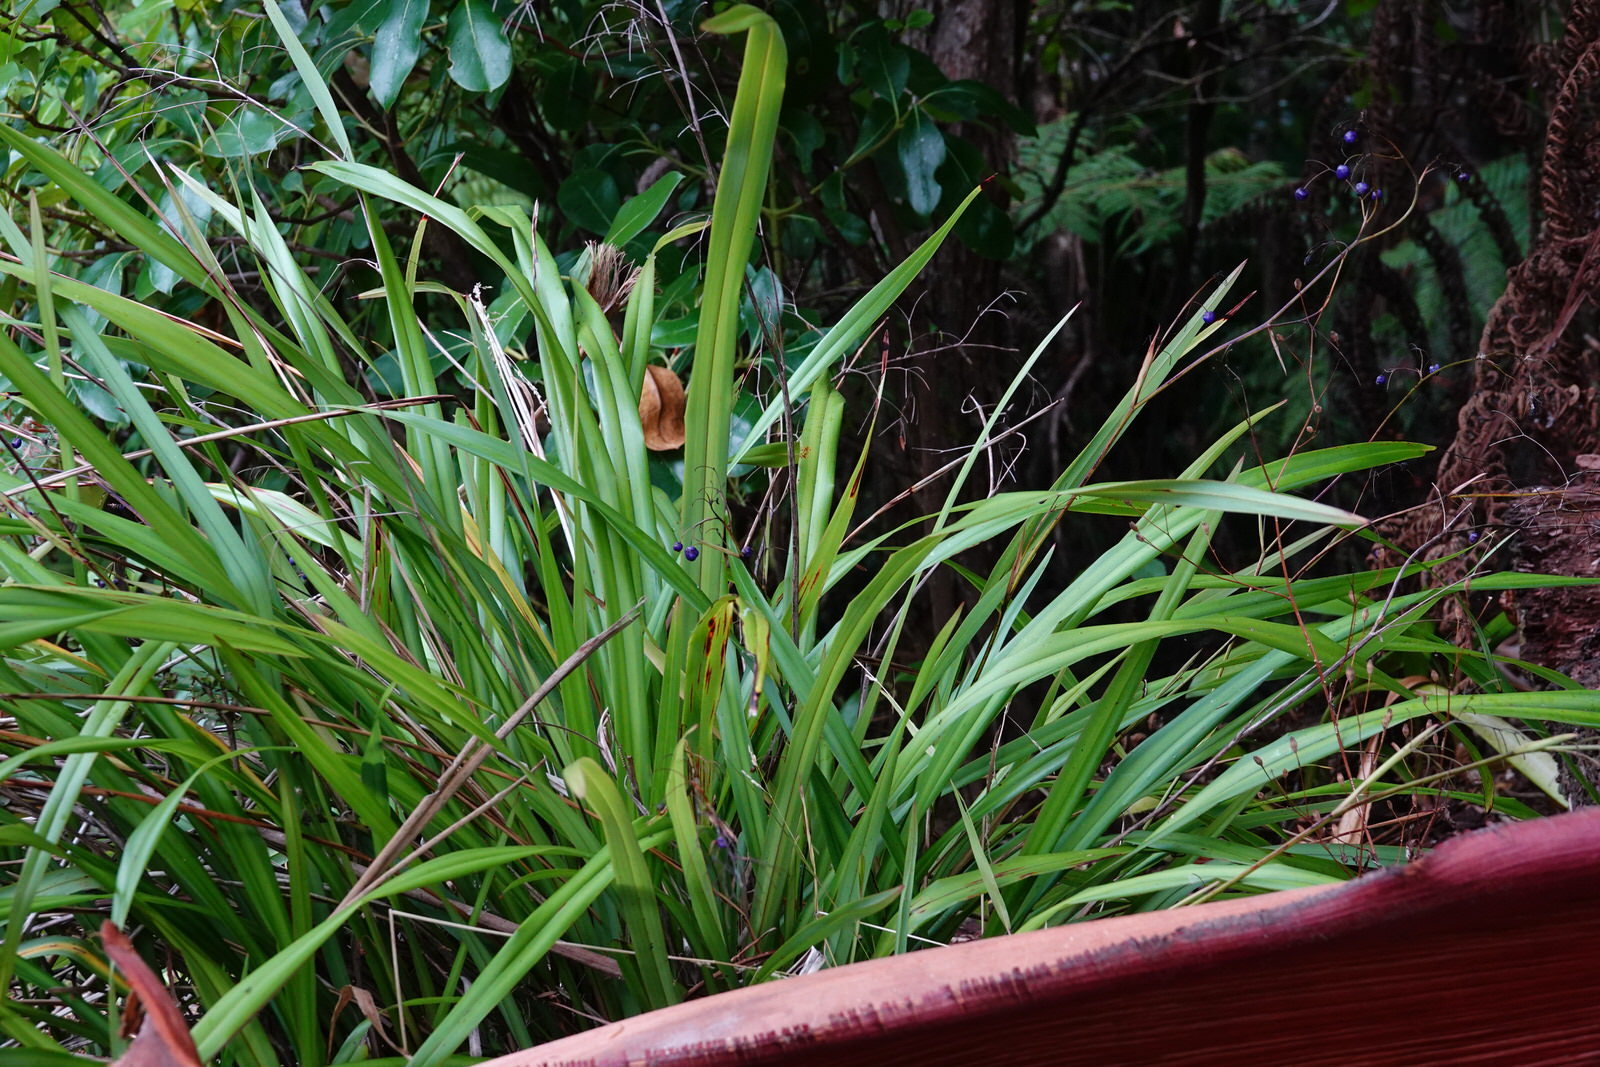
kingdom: Plantae
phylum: Tracheophyta
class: Liliopsida
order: Asparagales
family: Asphodelaceae
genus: Dianella
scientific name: Dianella nigra
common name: New zealand-blueberry
